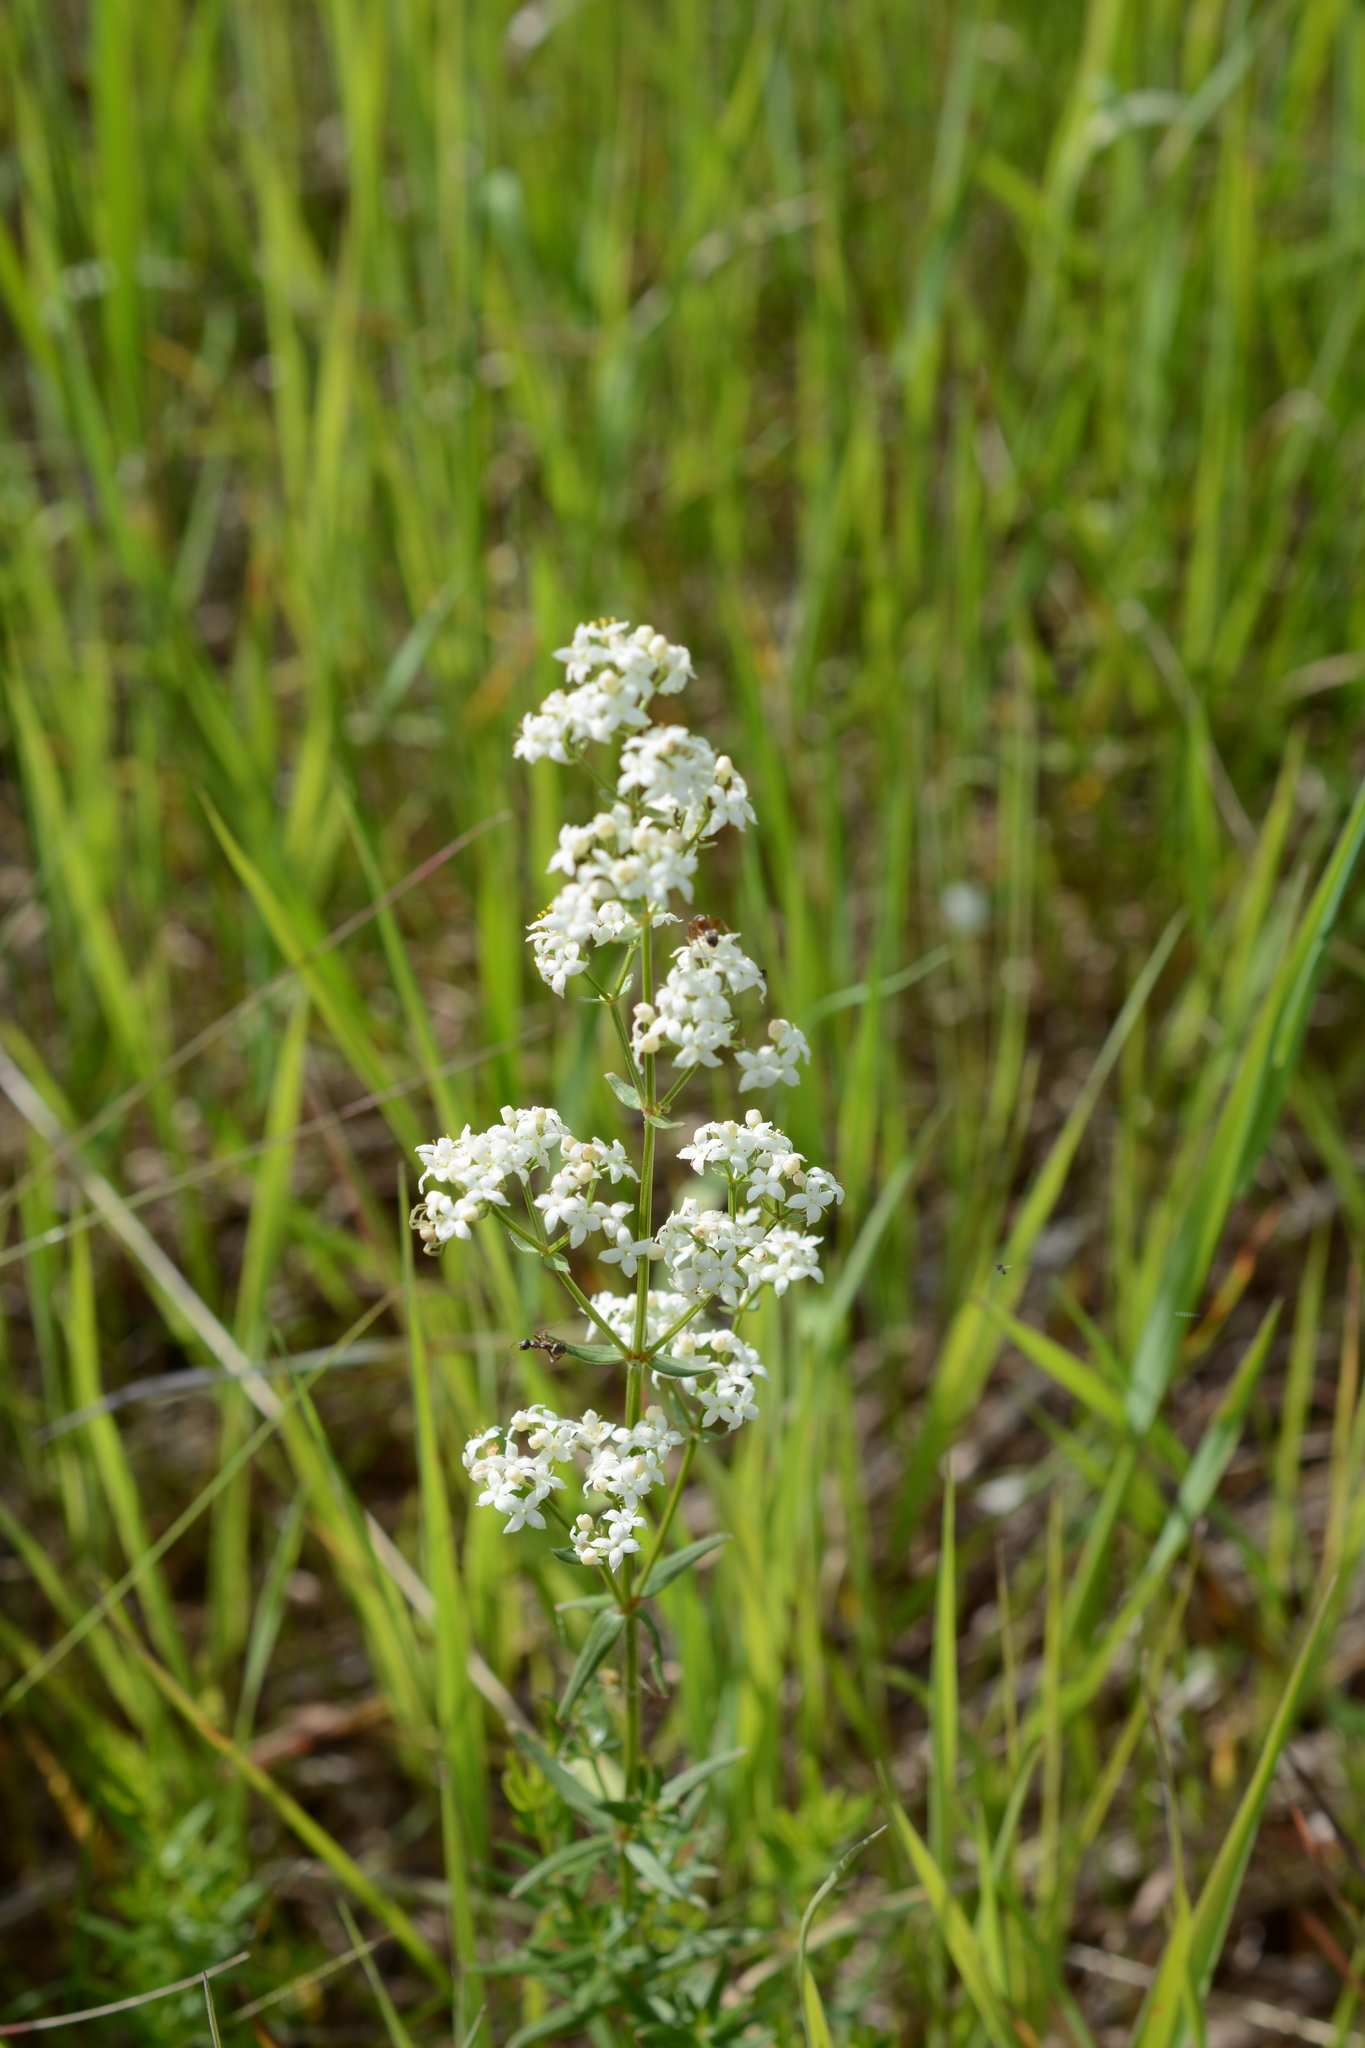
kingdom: Plantae
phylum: Tracheophyta
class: Magnoliopsida
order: Gentianales
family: Rubiaceae
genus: Galium
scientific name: Galium boreale
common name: Northern bedstraw
